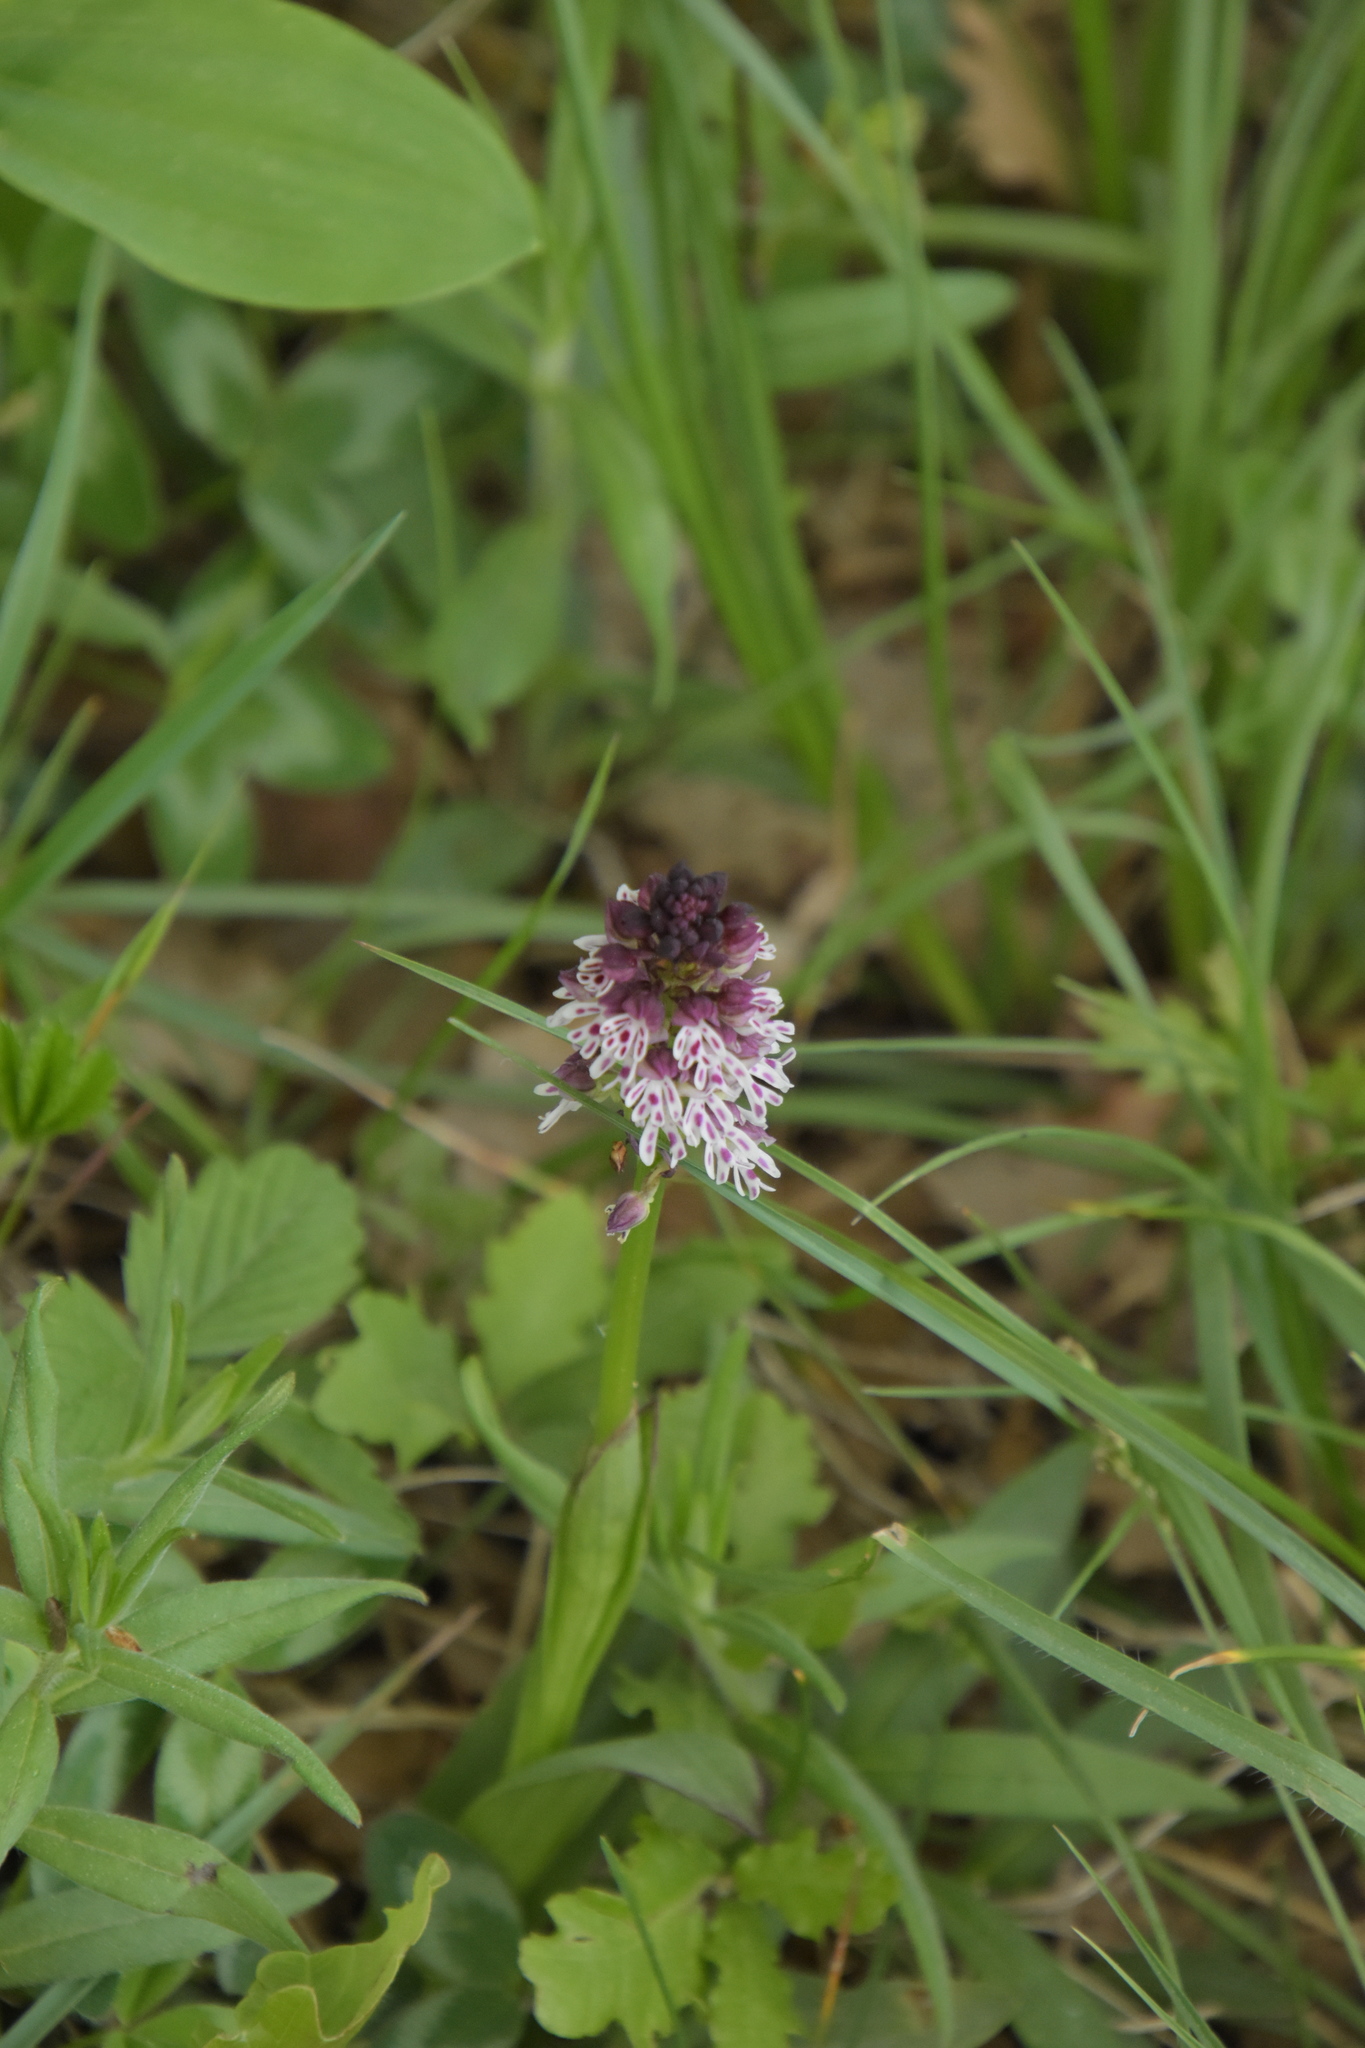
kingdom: Plantae
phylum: Tracheophyta
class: Liliopsida
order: Asparagales
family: Orchidaceae
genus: Neotinea
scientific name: Neotinea ustulata
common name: Burnt orchid
